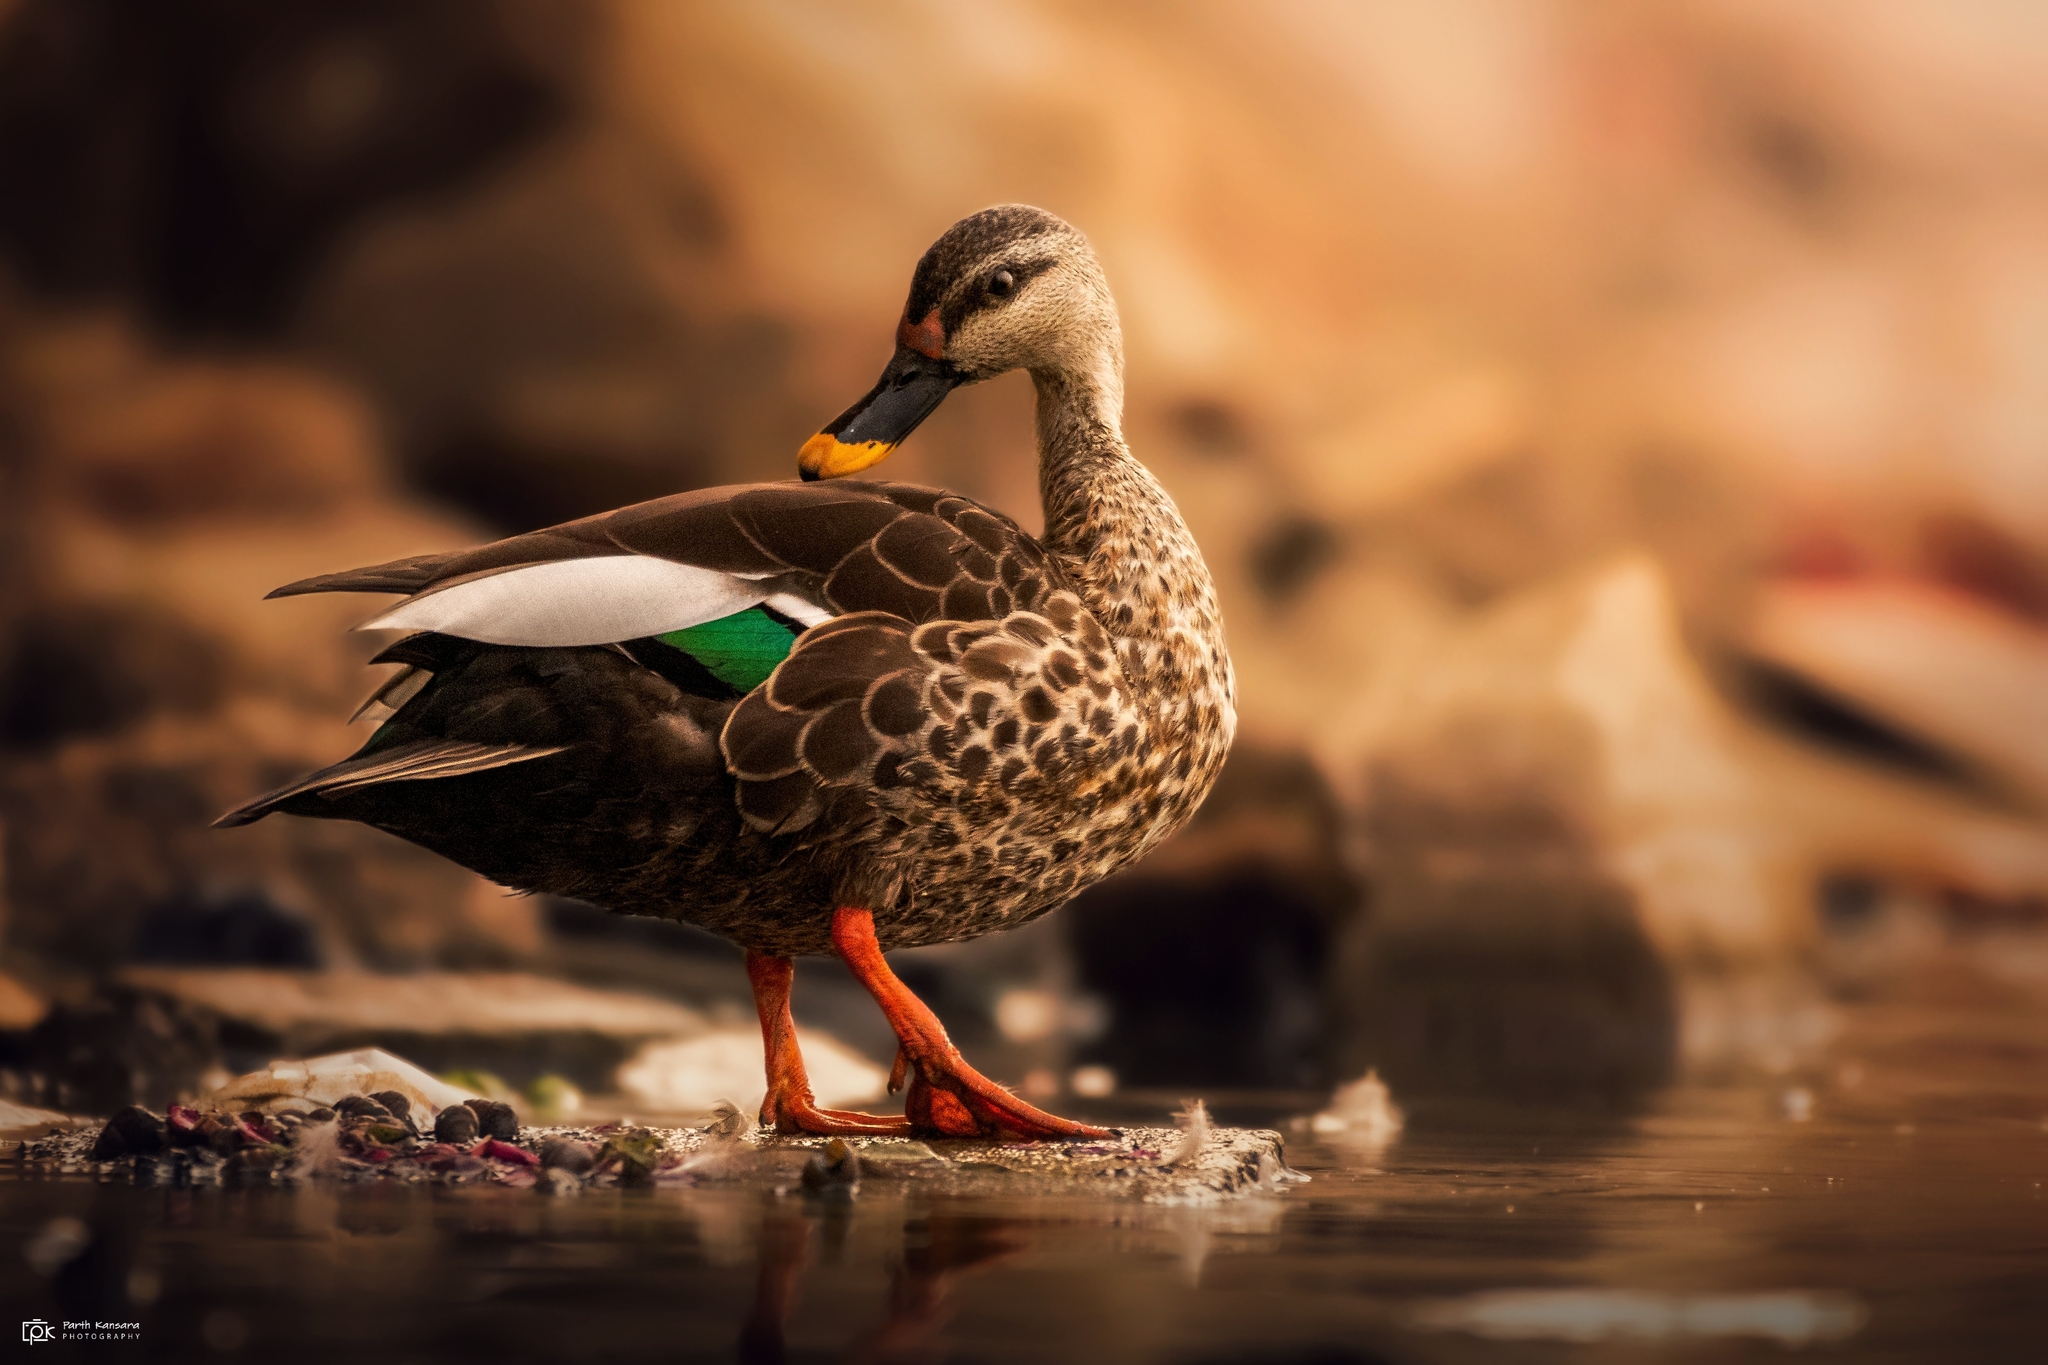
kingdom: Animalia
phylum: Chordata
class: Aves
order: Anseriformes
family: Anatidae
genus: Anas
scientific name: Anas poecilorhyncha
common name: Indian spot-billed duck
